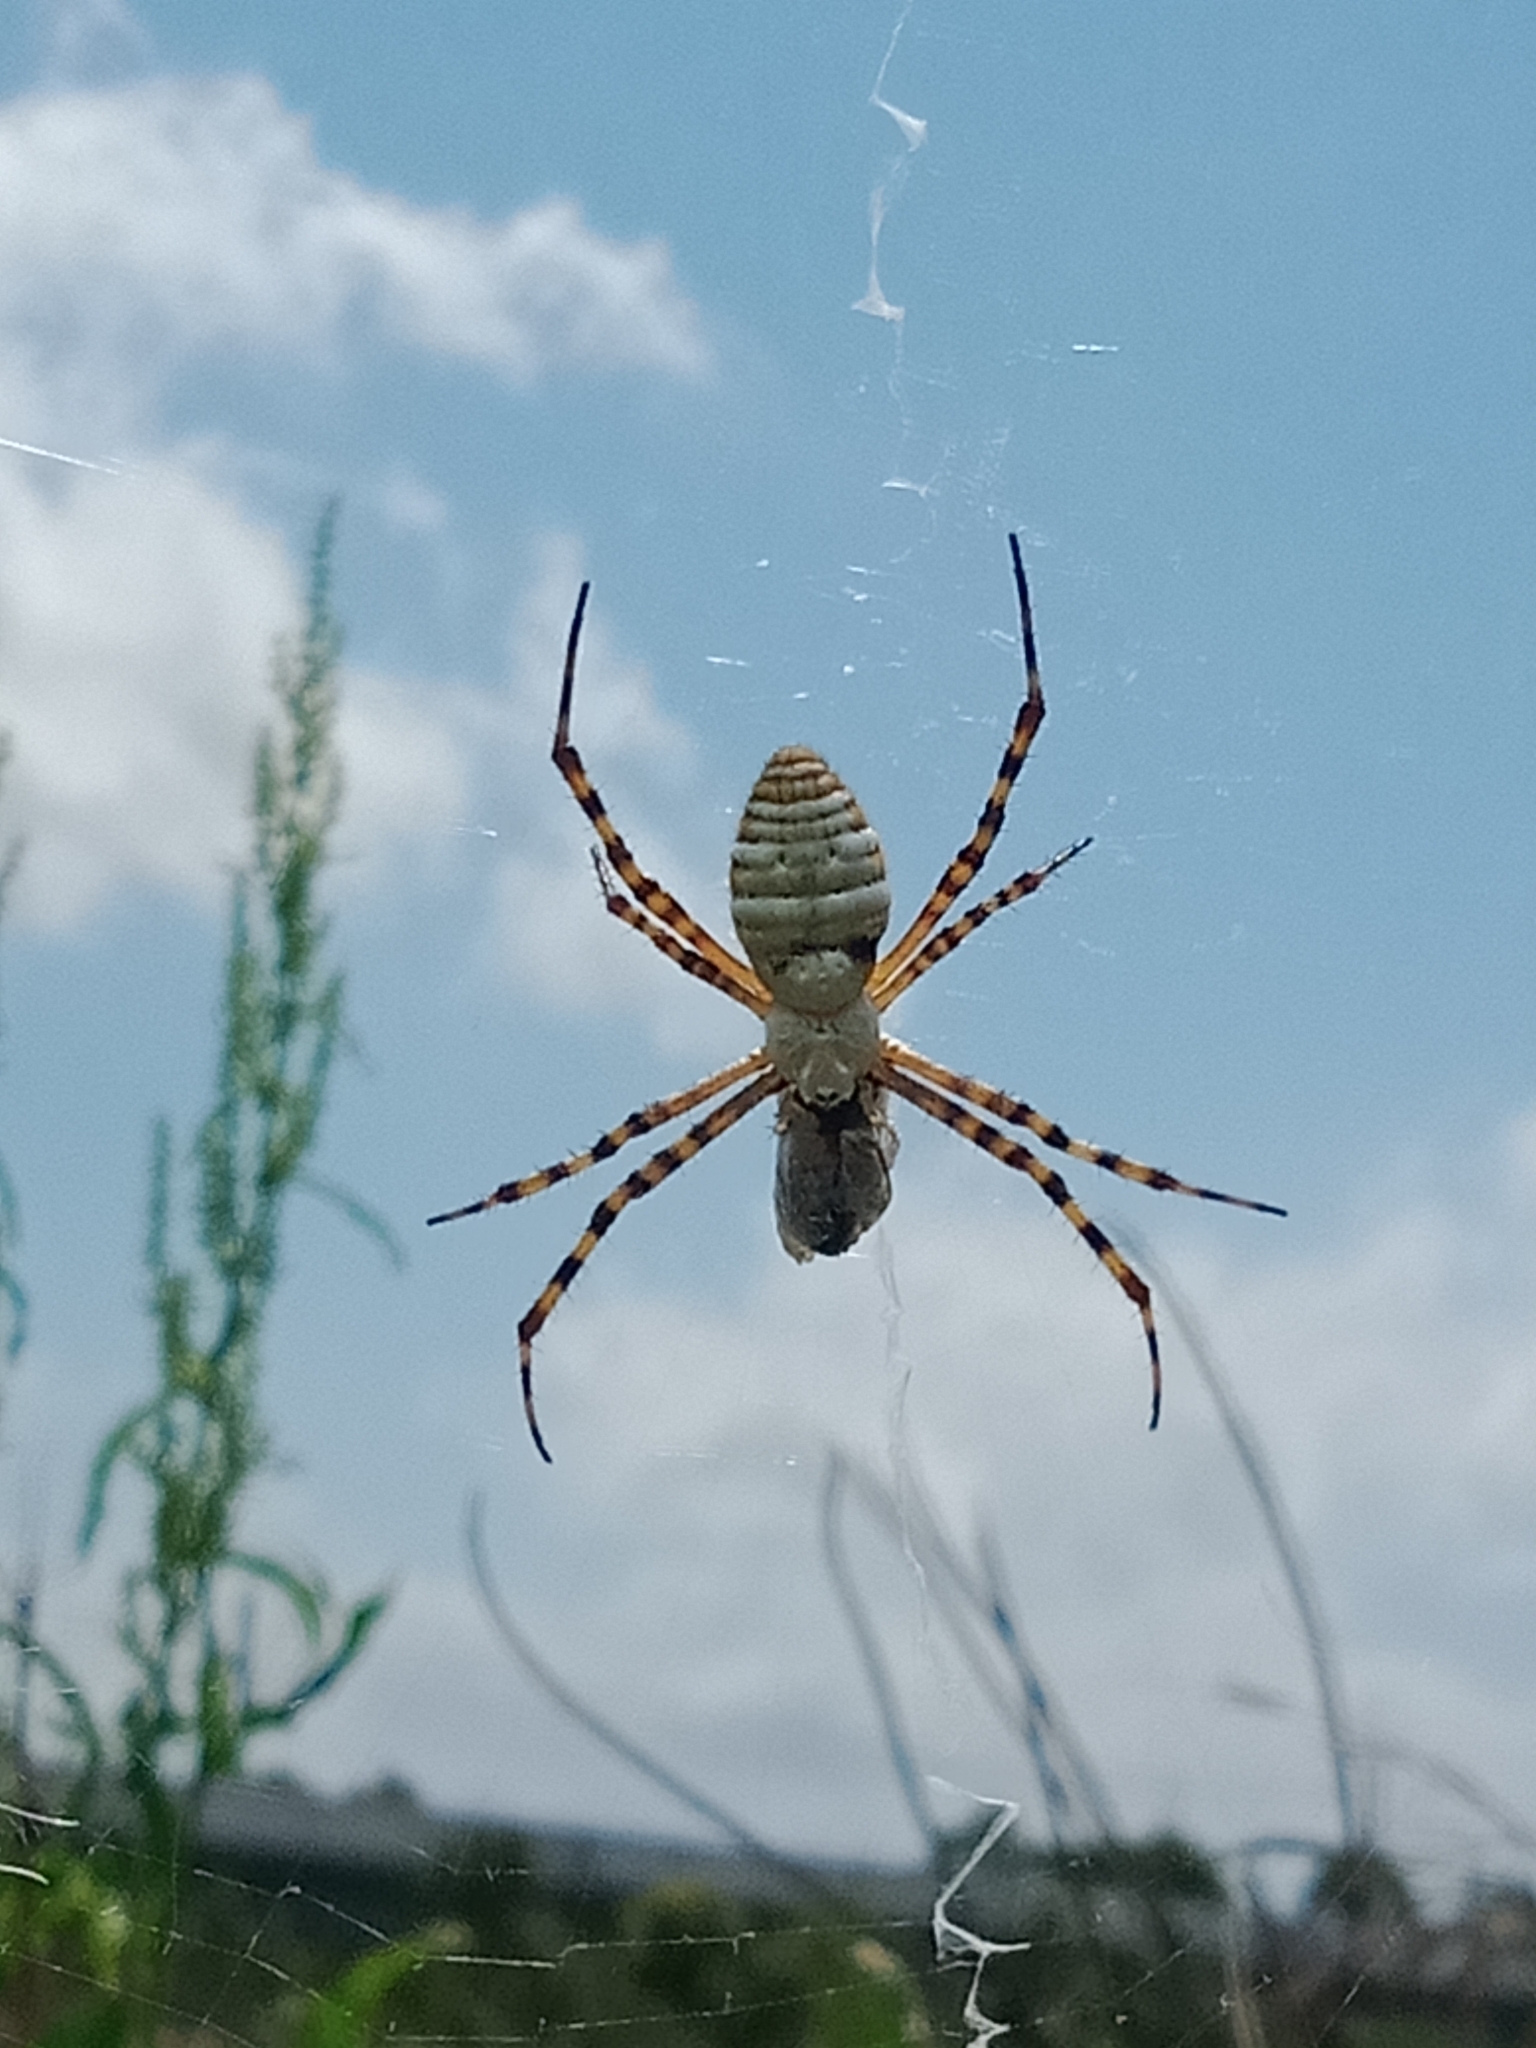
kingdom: Animalia
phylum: Arthropoda
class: Arachnida
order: Araneae
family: Araneidae
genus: Argiope
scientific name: Argiope trifasciata
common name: Banded garden spider
